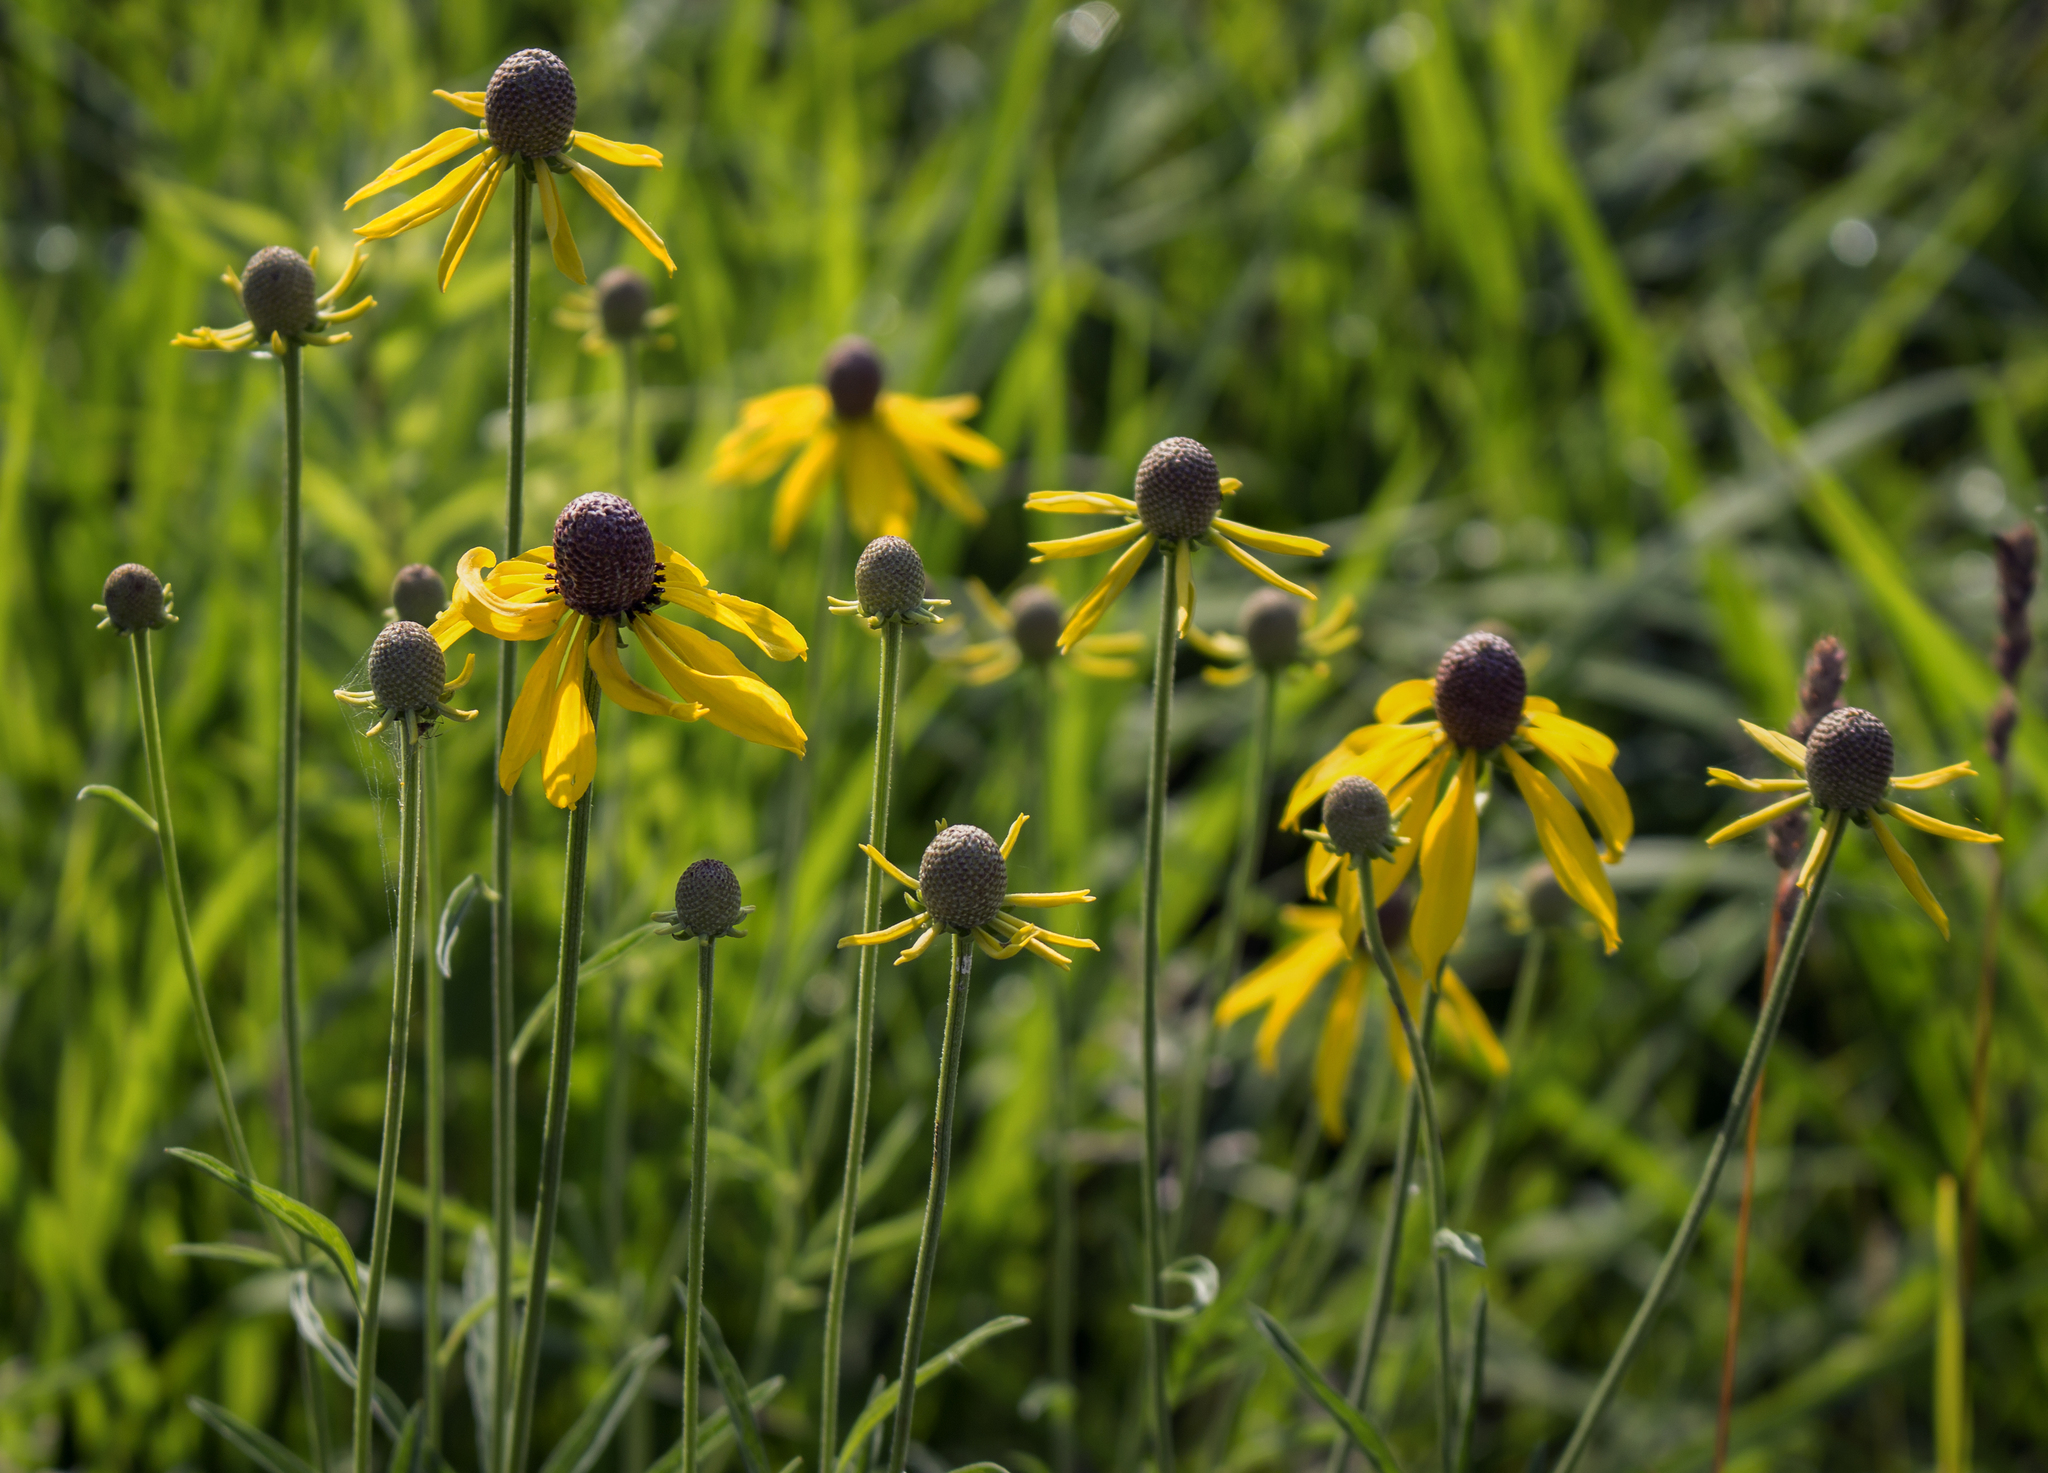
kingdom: Plantae
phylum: Tracheophyta
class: Magnoliopsida
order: Asterales
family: Asteraceae
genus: Ratibida
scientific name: Ratibida pinnata
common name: Drooping prairie-coneflower
